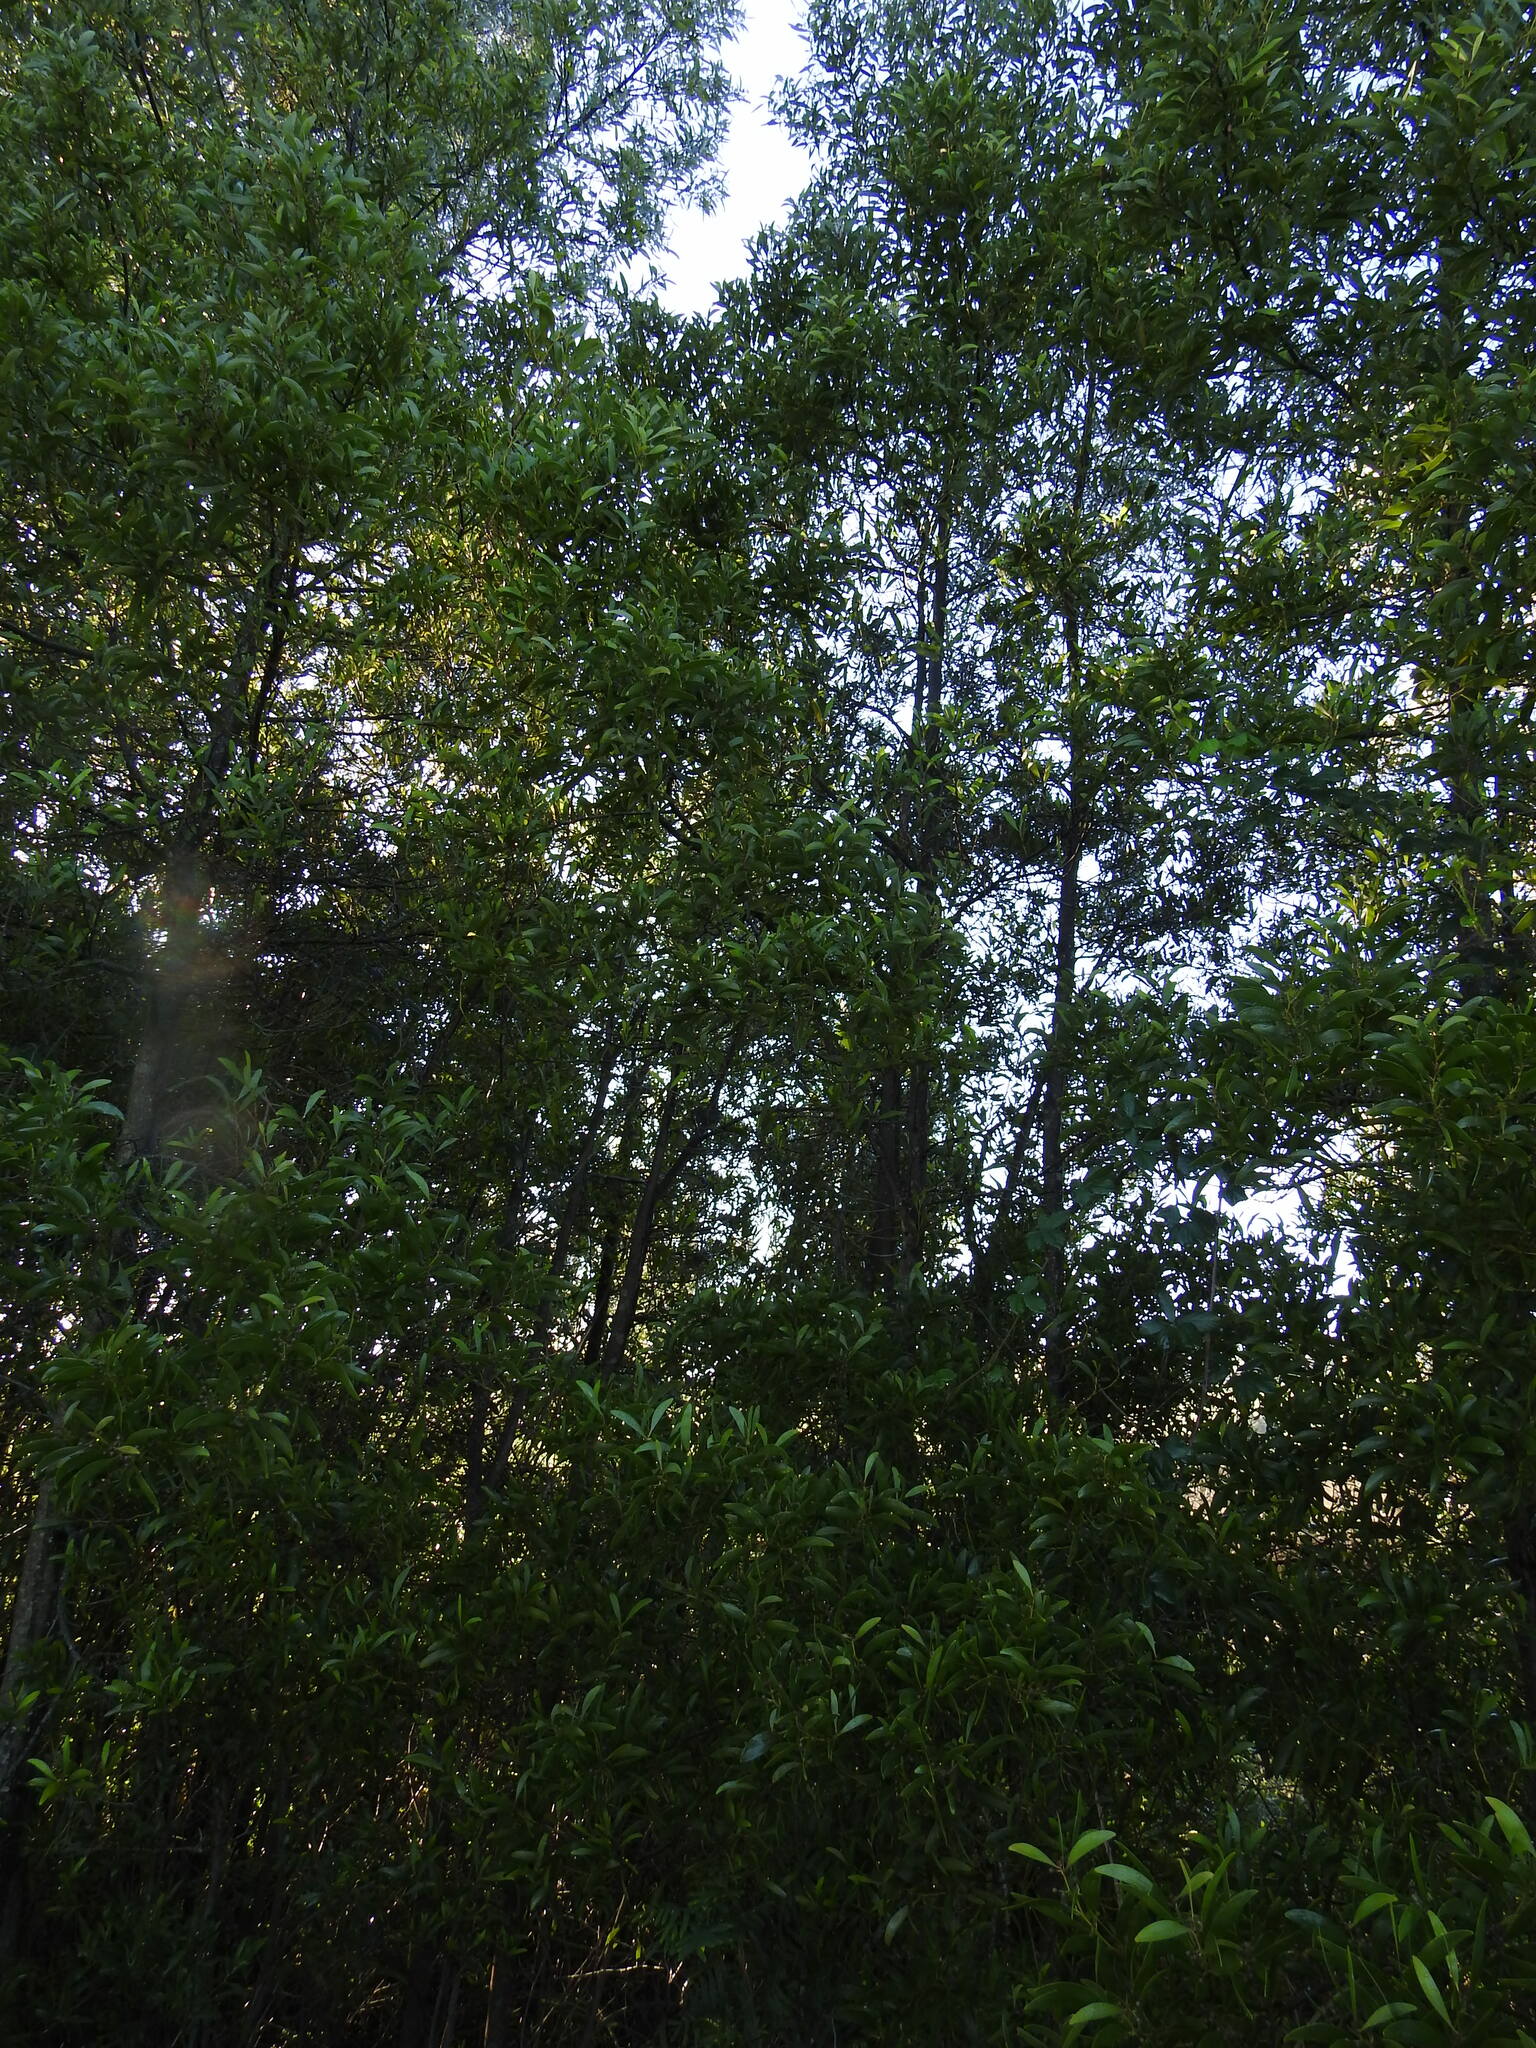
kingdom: Plantae
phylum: Tracheophyta
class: Magnoliopsida
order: Fabales
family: Fabaceae
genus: Acacia
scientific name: Acacia melanoxylon
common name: Blackwood
